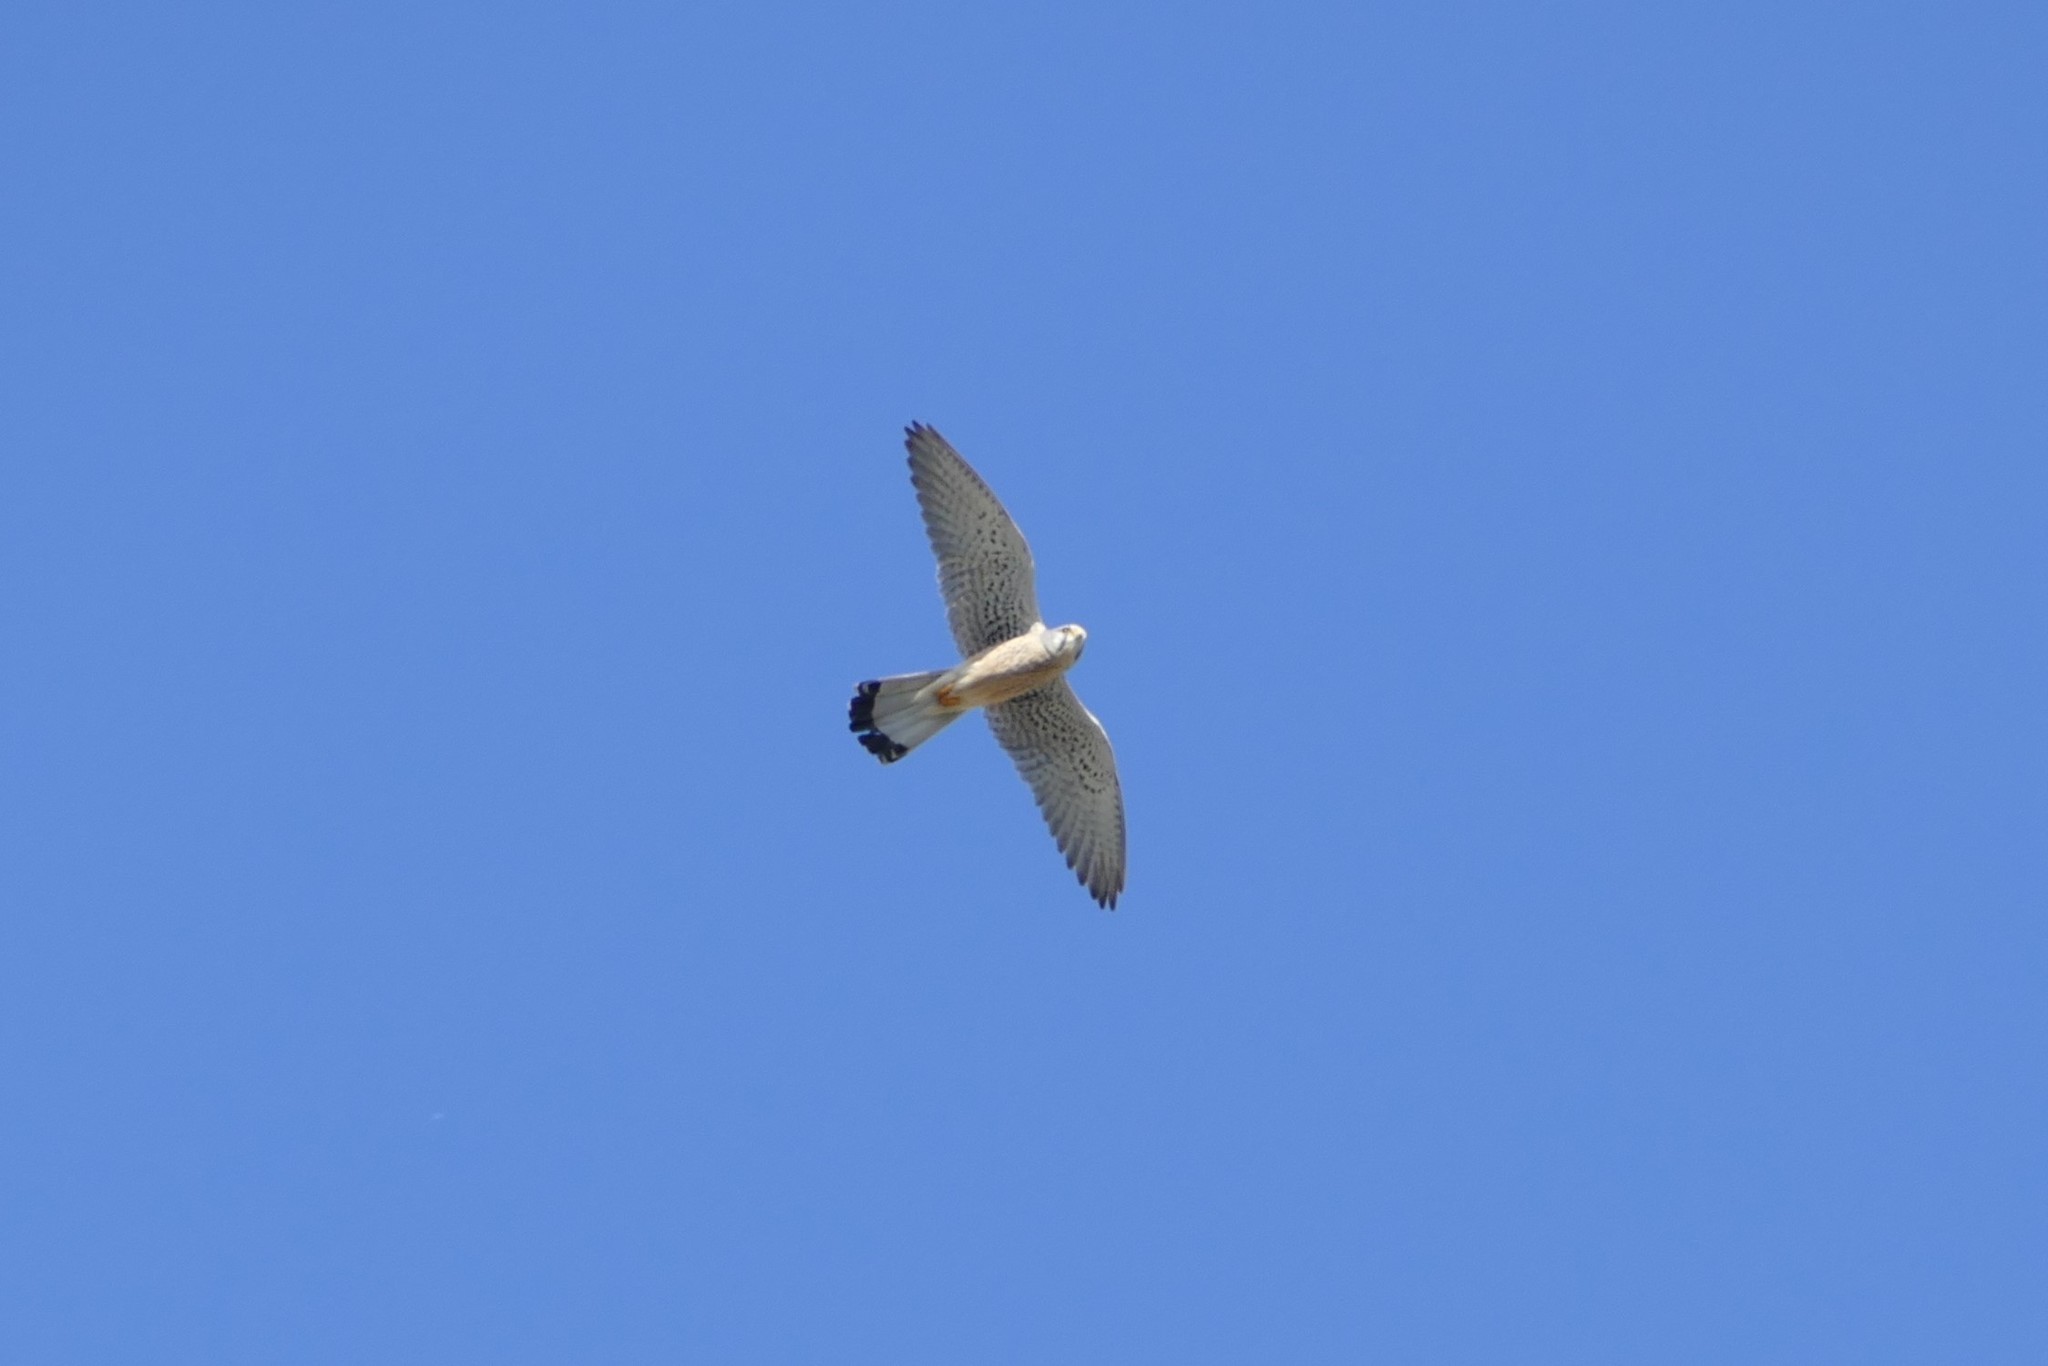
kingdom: Animalia
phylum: Chordata
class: Aves
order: Falconiformes
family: Falconidae
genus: Falco
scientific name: Falco tinnunculus
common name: Common kestrel
